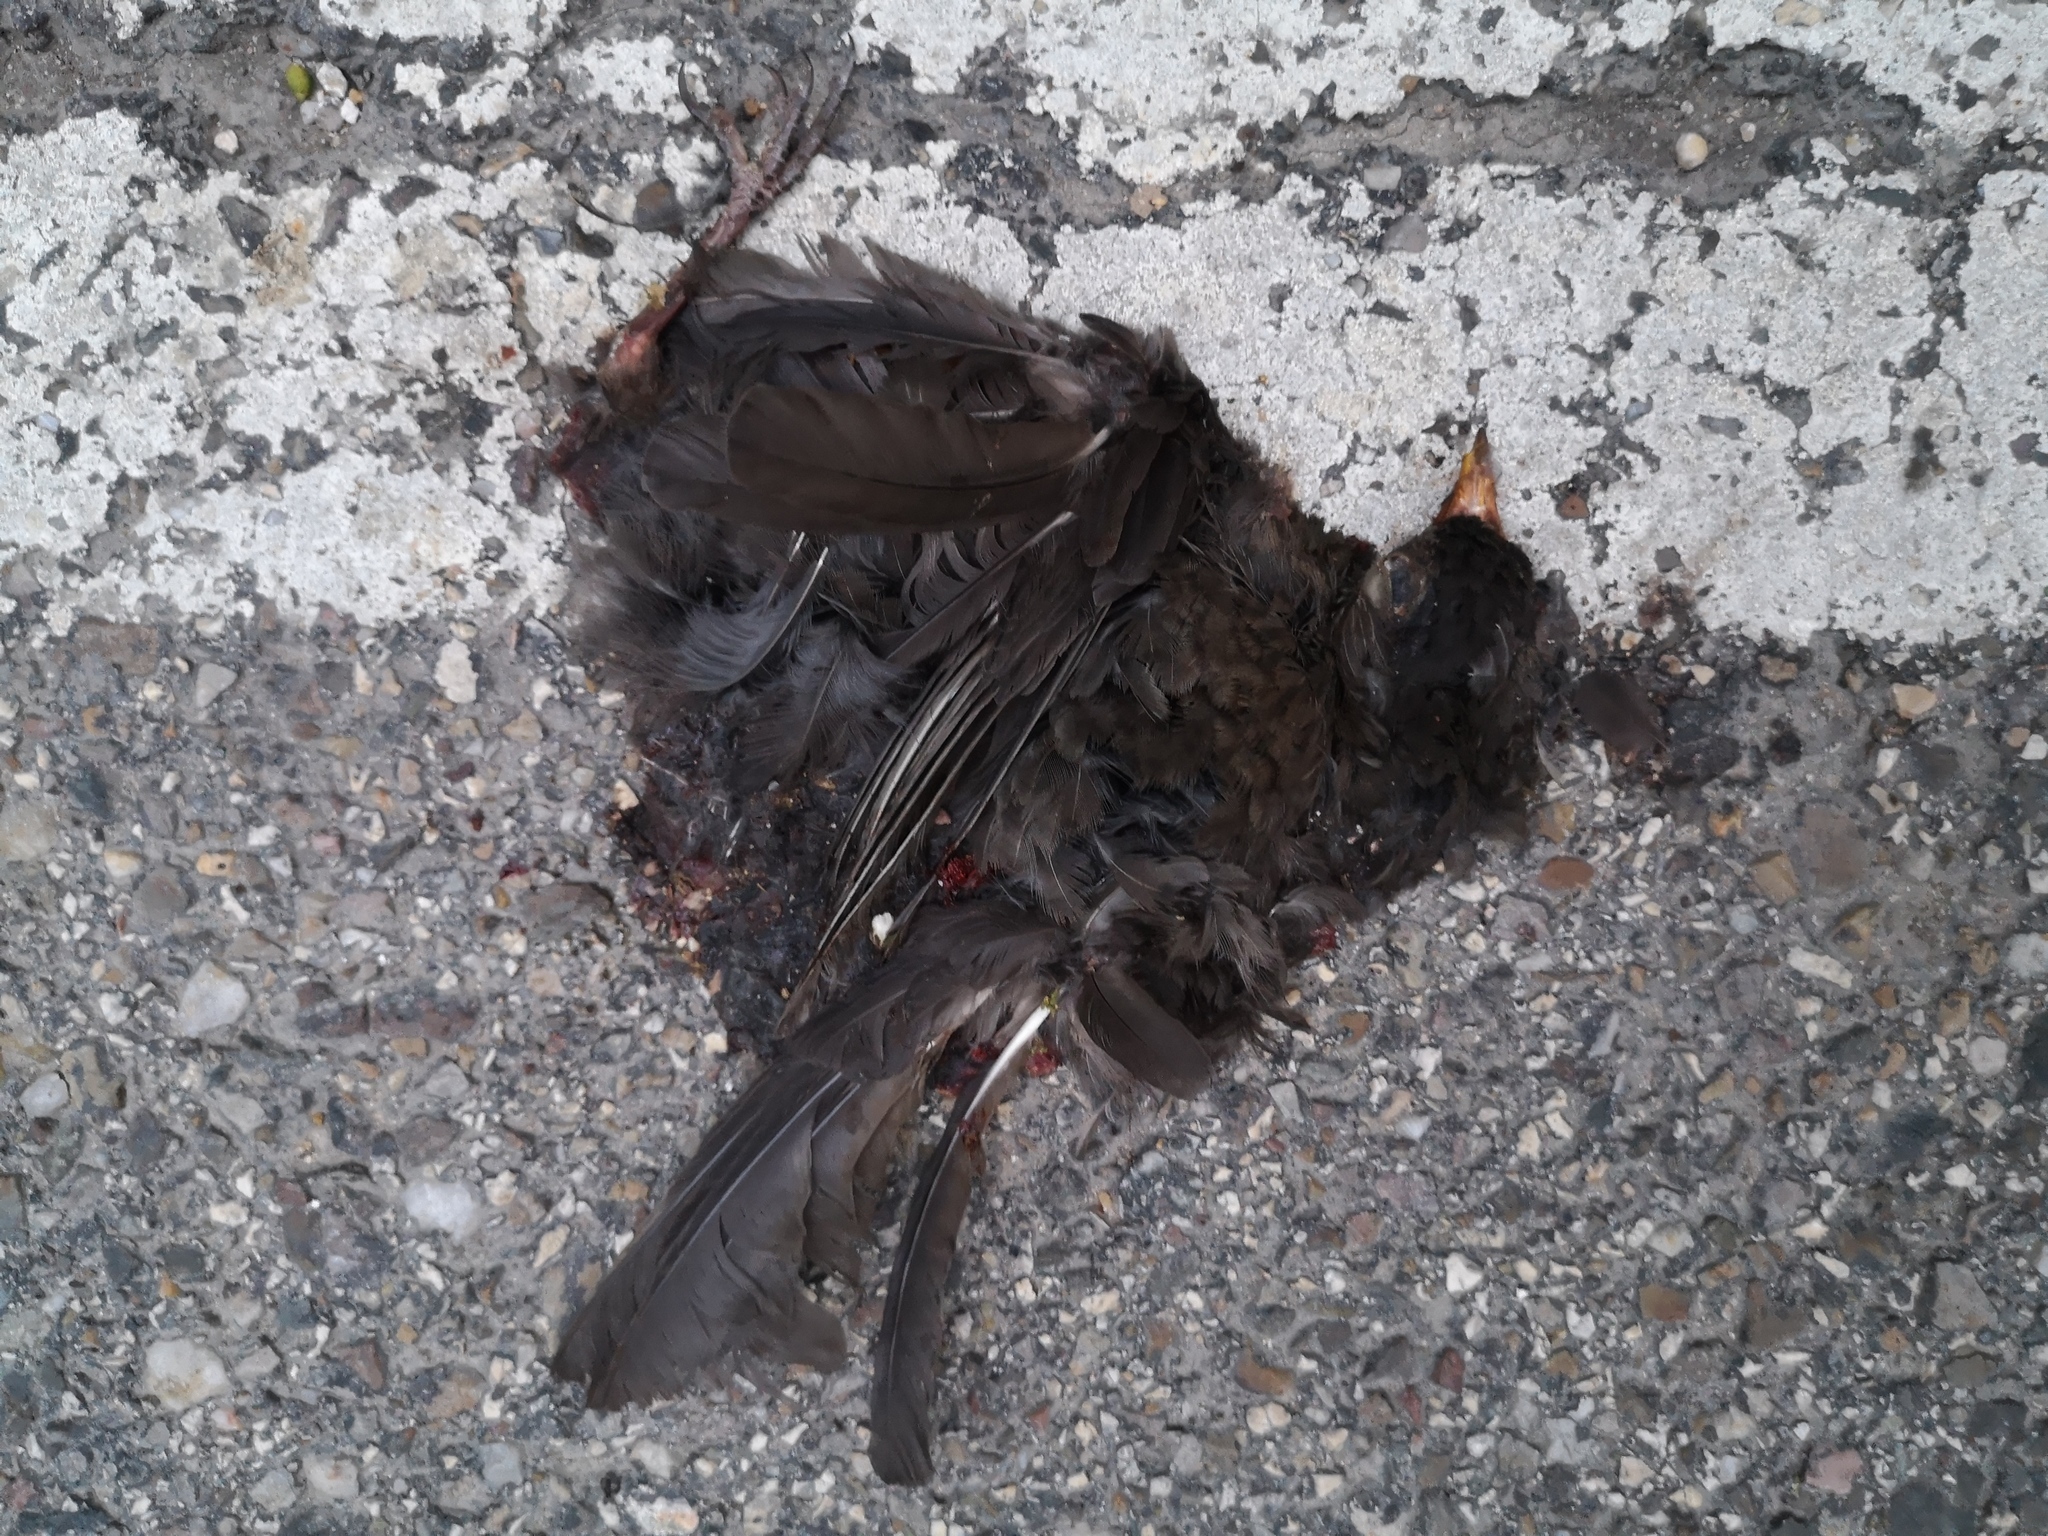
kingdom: Animalia
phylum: Chordata
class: Aves
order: Passeriformes
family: Turdidae
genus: Turdus
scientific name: Turdus merula
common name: Common blackbird
